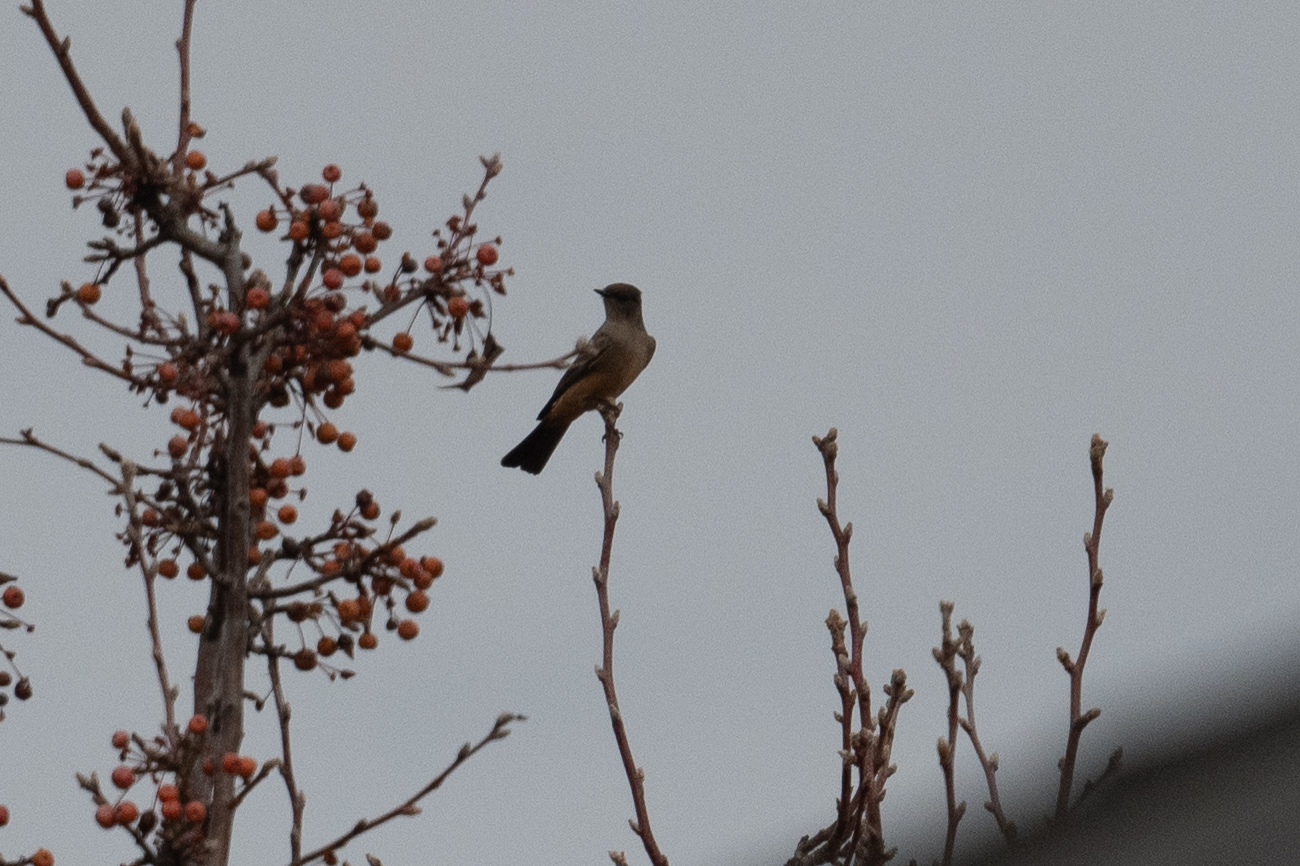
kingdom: Animalia
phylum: Chordata
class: Aves
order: Passeriformes
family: Tyrannidae
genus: Sayornis
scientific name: Sayornis saya
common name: Say's phoebe
